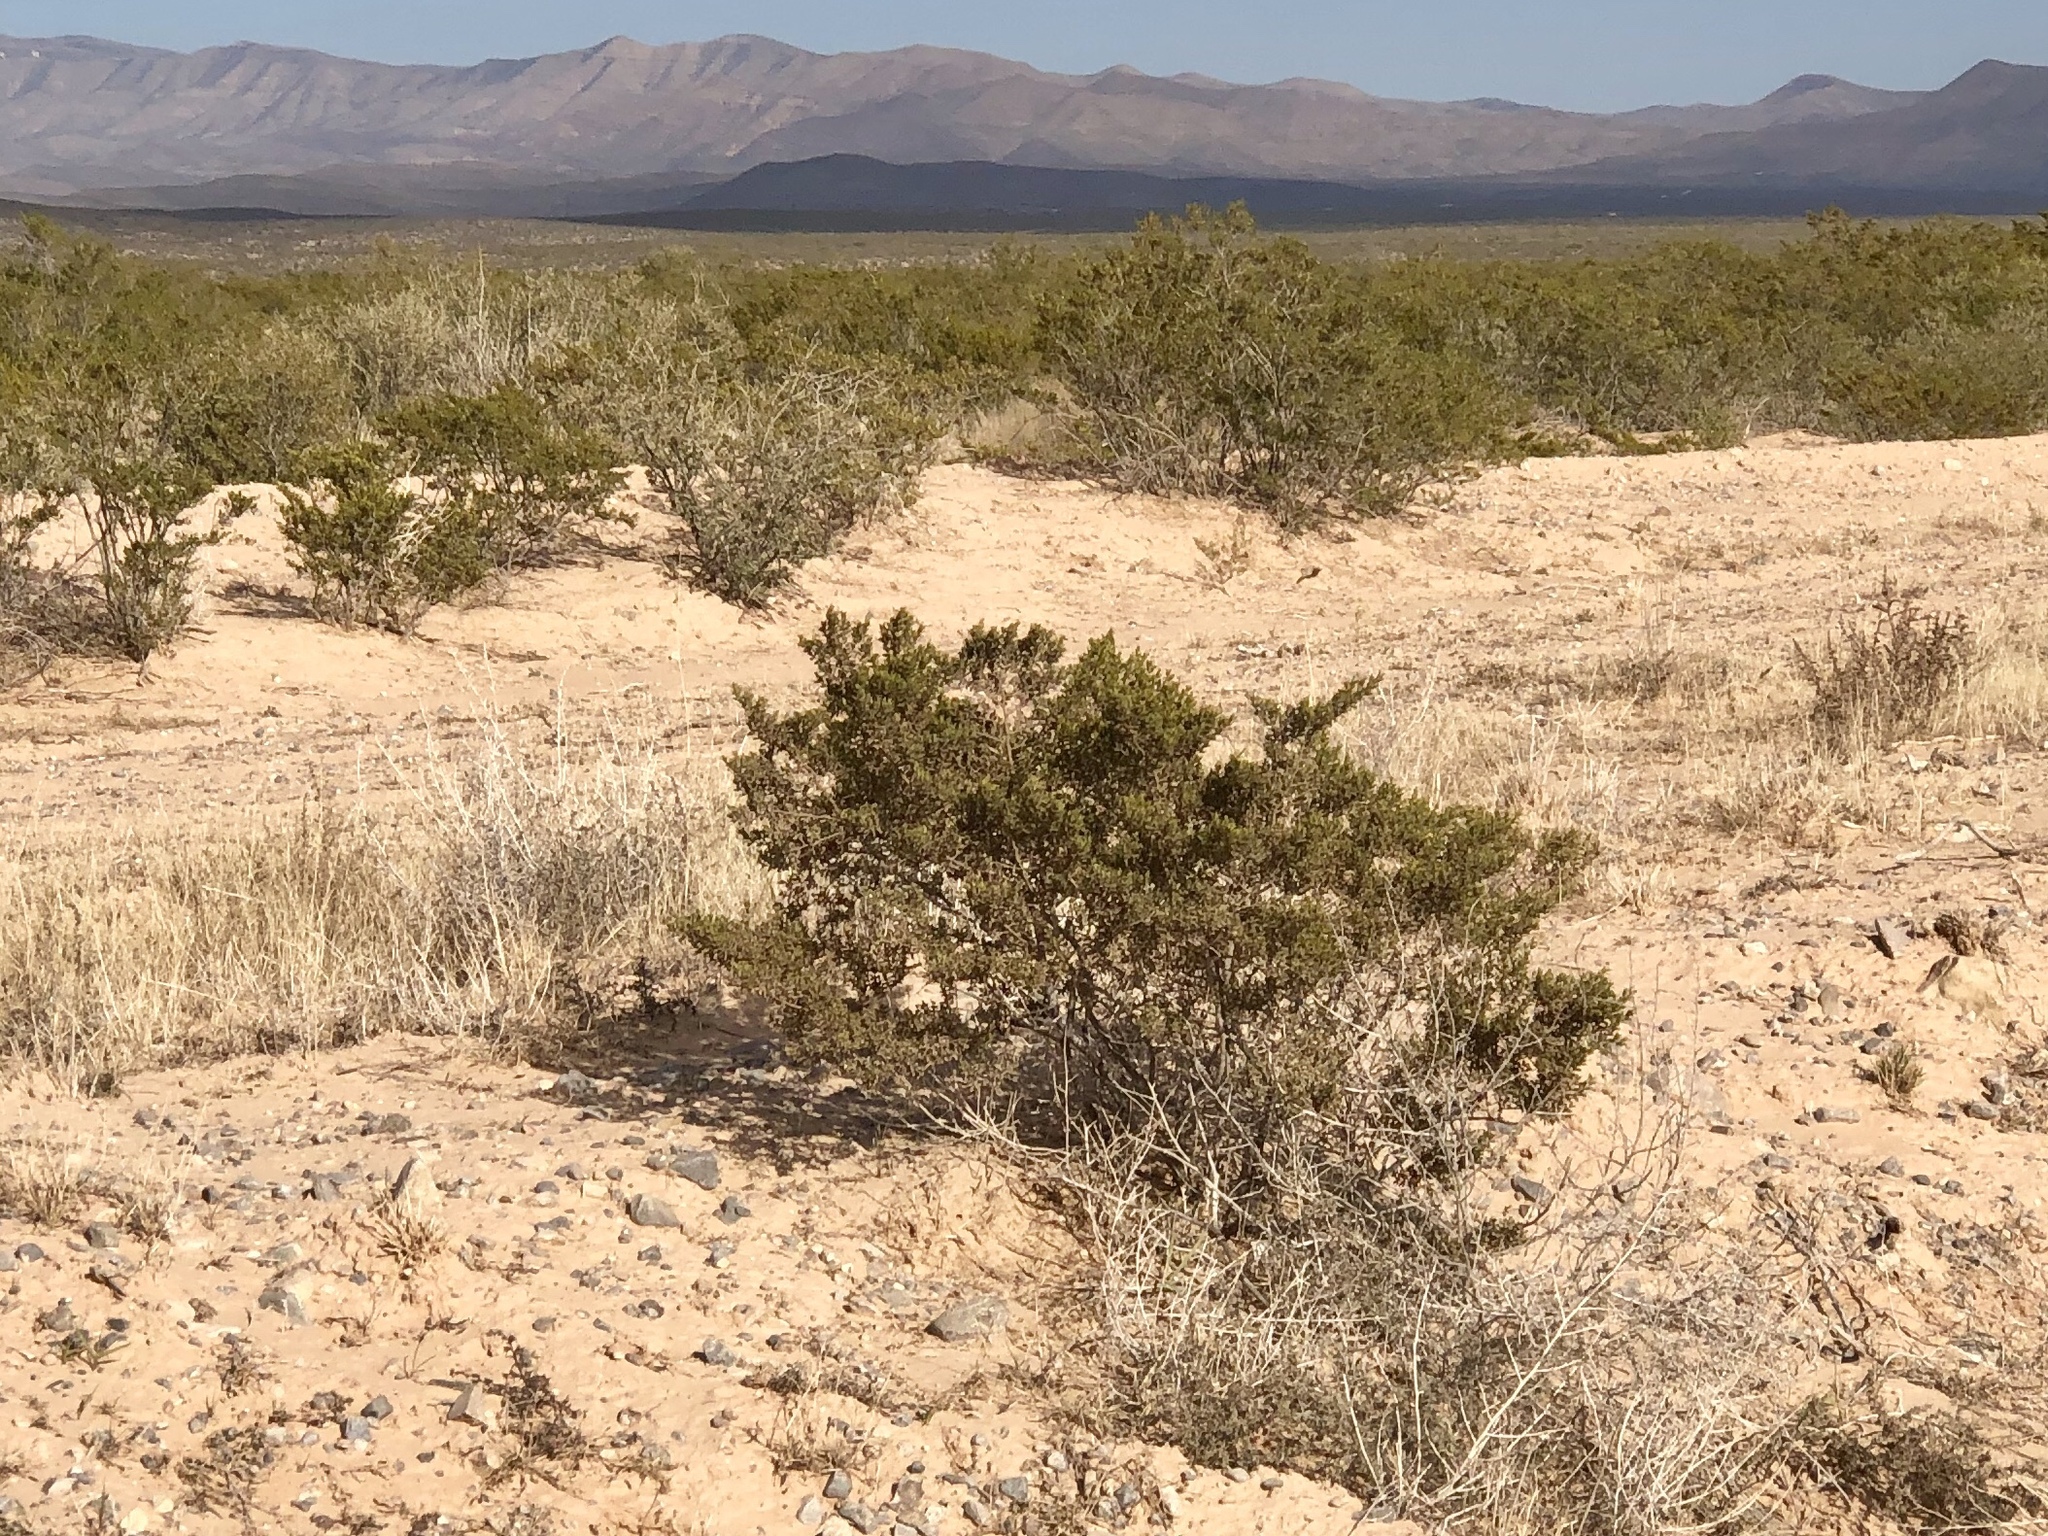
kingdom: Plantae
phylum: Tracheophyta
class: Magnoliopsida
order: Zygophyllales
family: Zygophyllaceae
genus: Larrea
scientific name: Larrea tridentata
